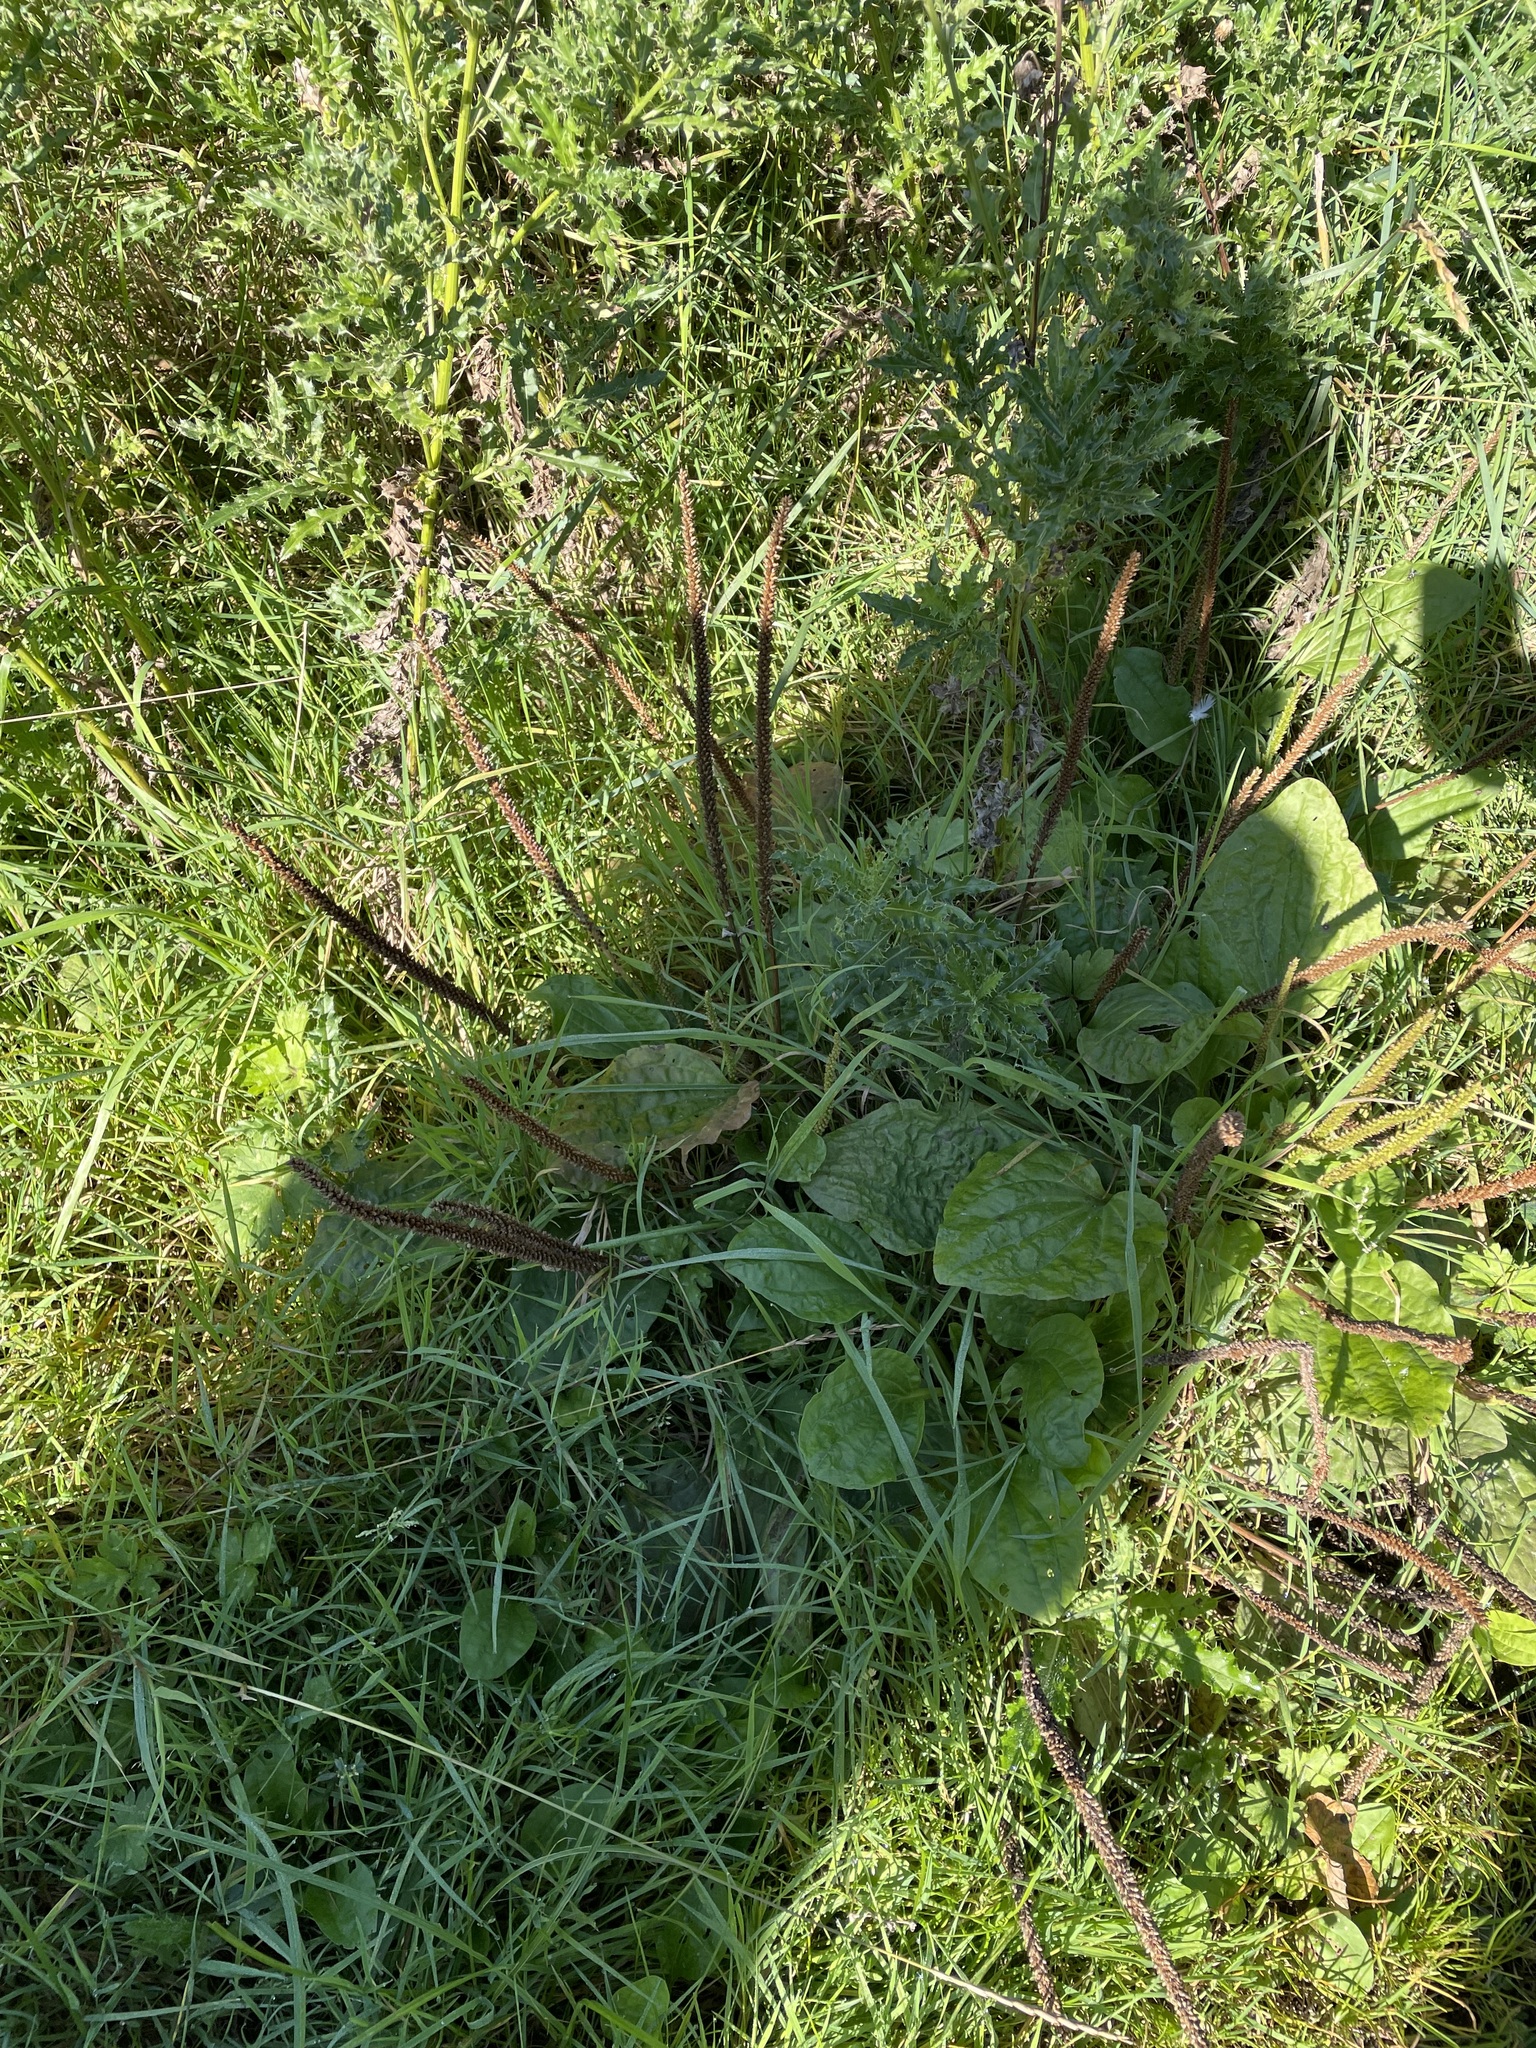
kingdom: Plantae
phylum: Tracheophyta
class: Magnoliopsida
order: Lamiales
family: Plantaginaceae
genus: Plantago
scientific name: Plantago major
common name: Common plantain
